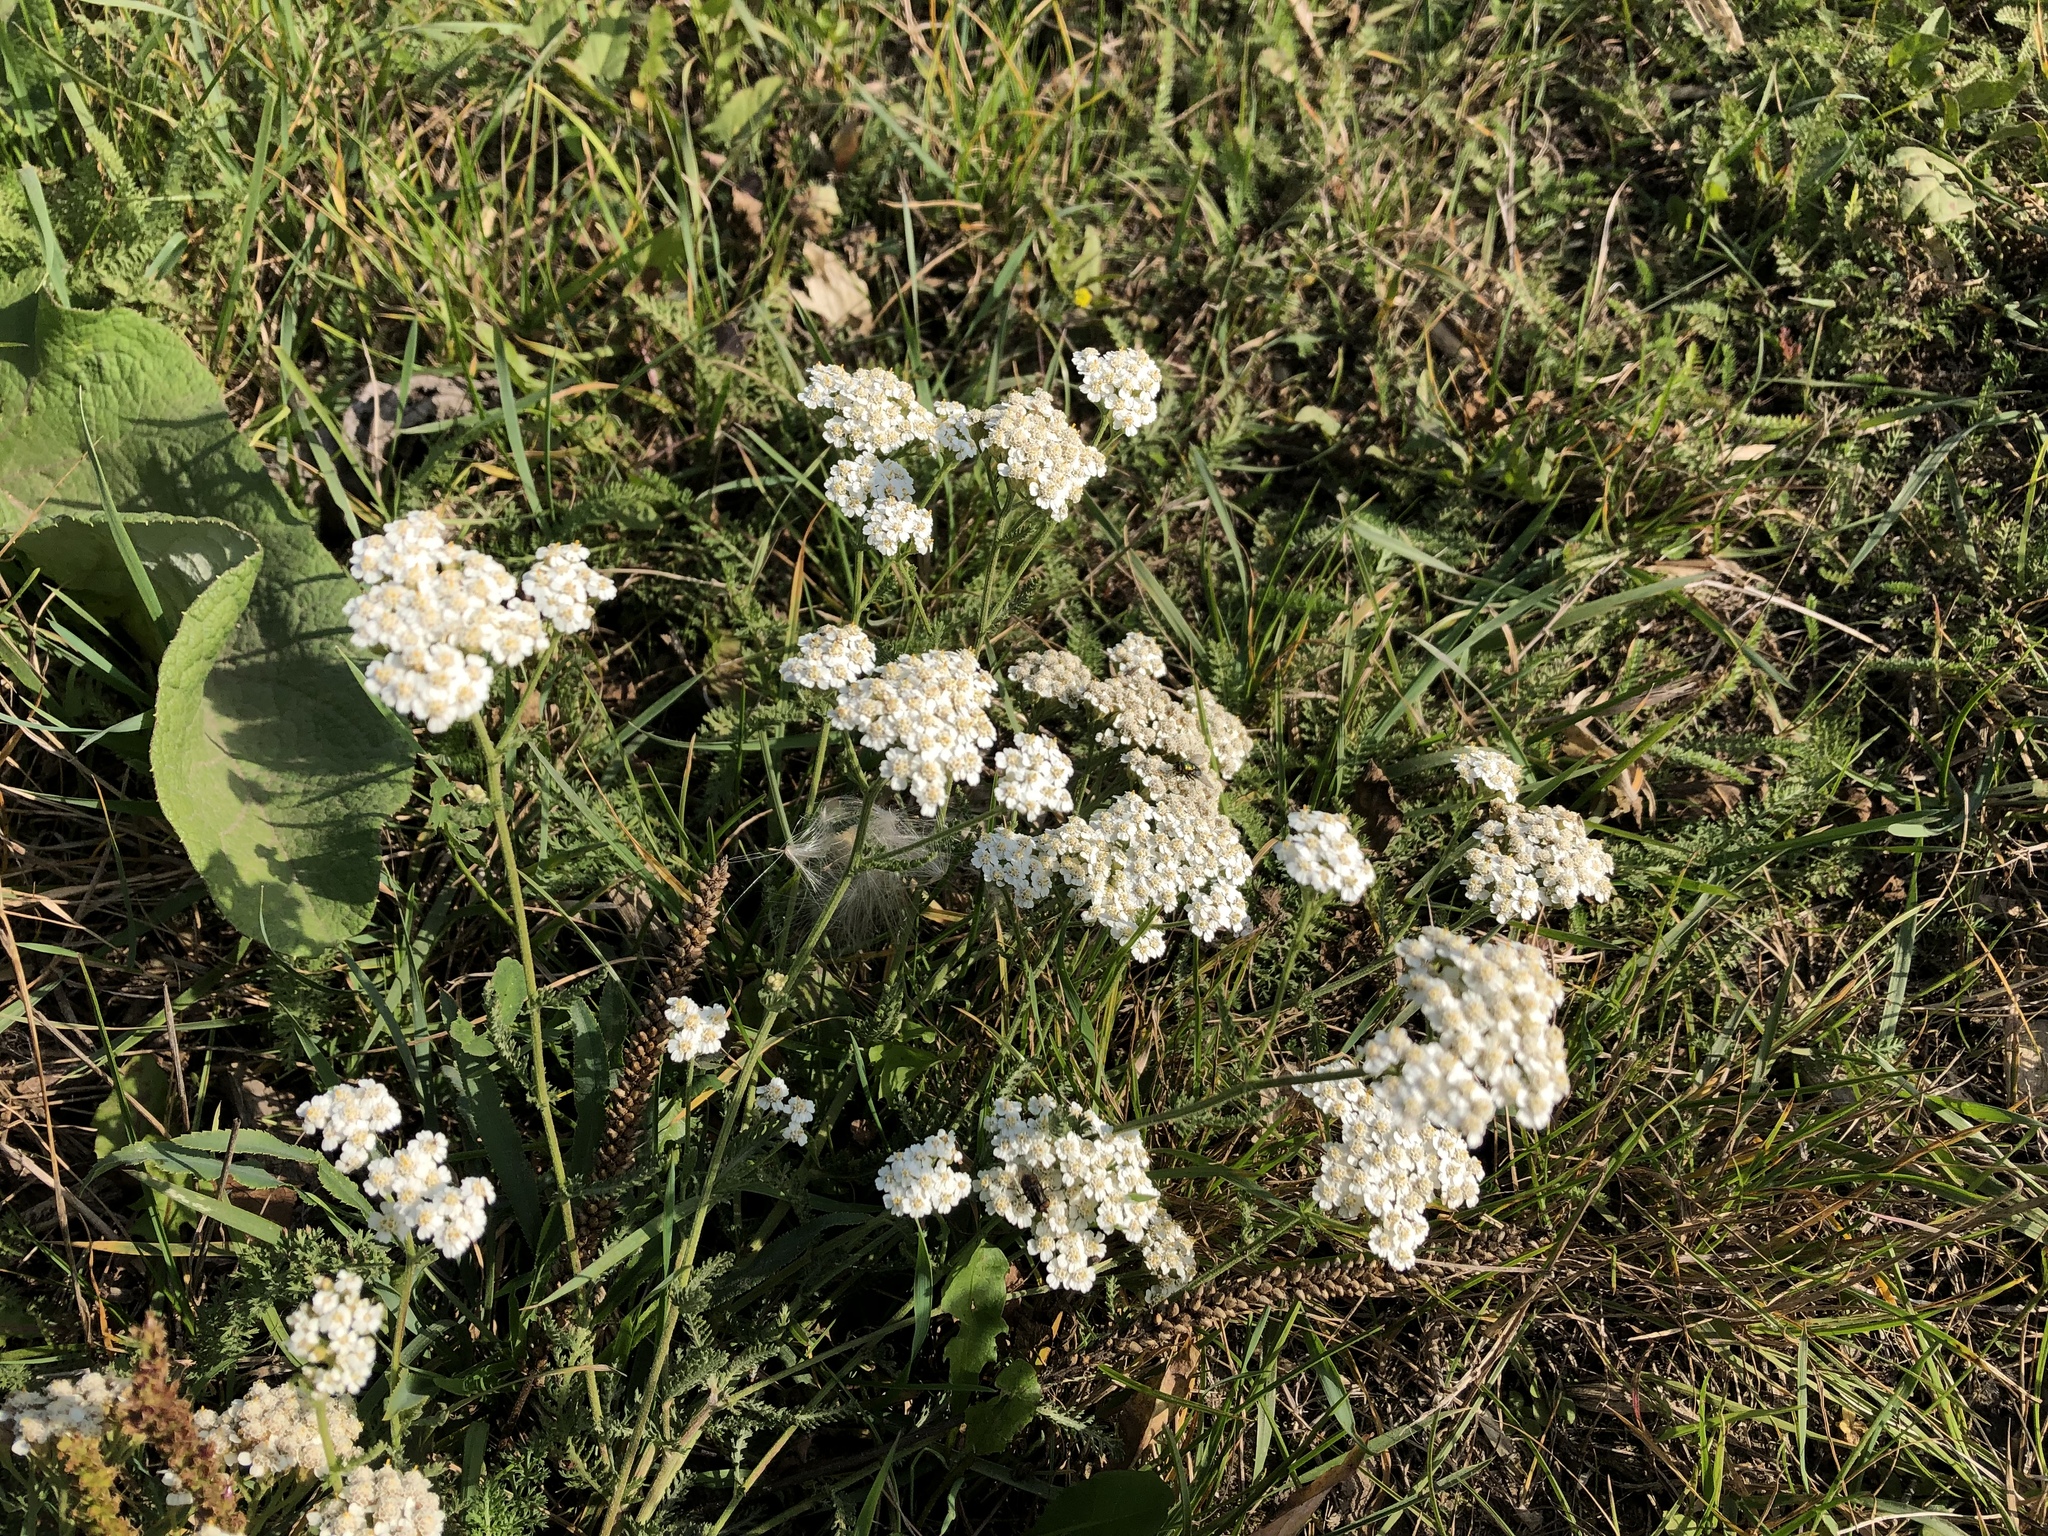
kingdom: Plantae
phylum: Tracheophyta
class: Magnoliopsida
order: Asterales
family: Asteraceae
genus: Achillea
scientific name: Achillea millefolium
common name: Yarrow
